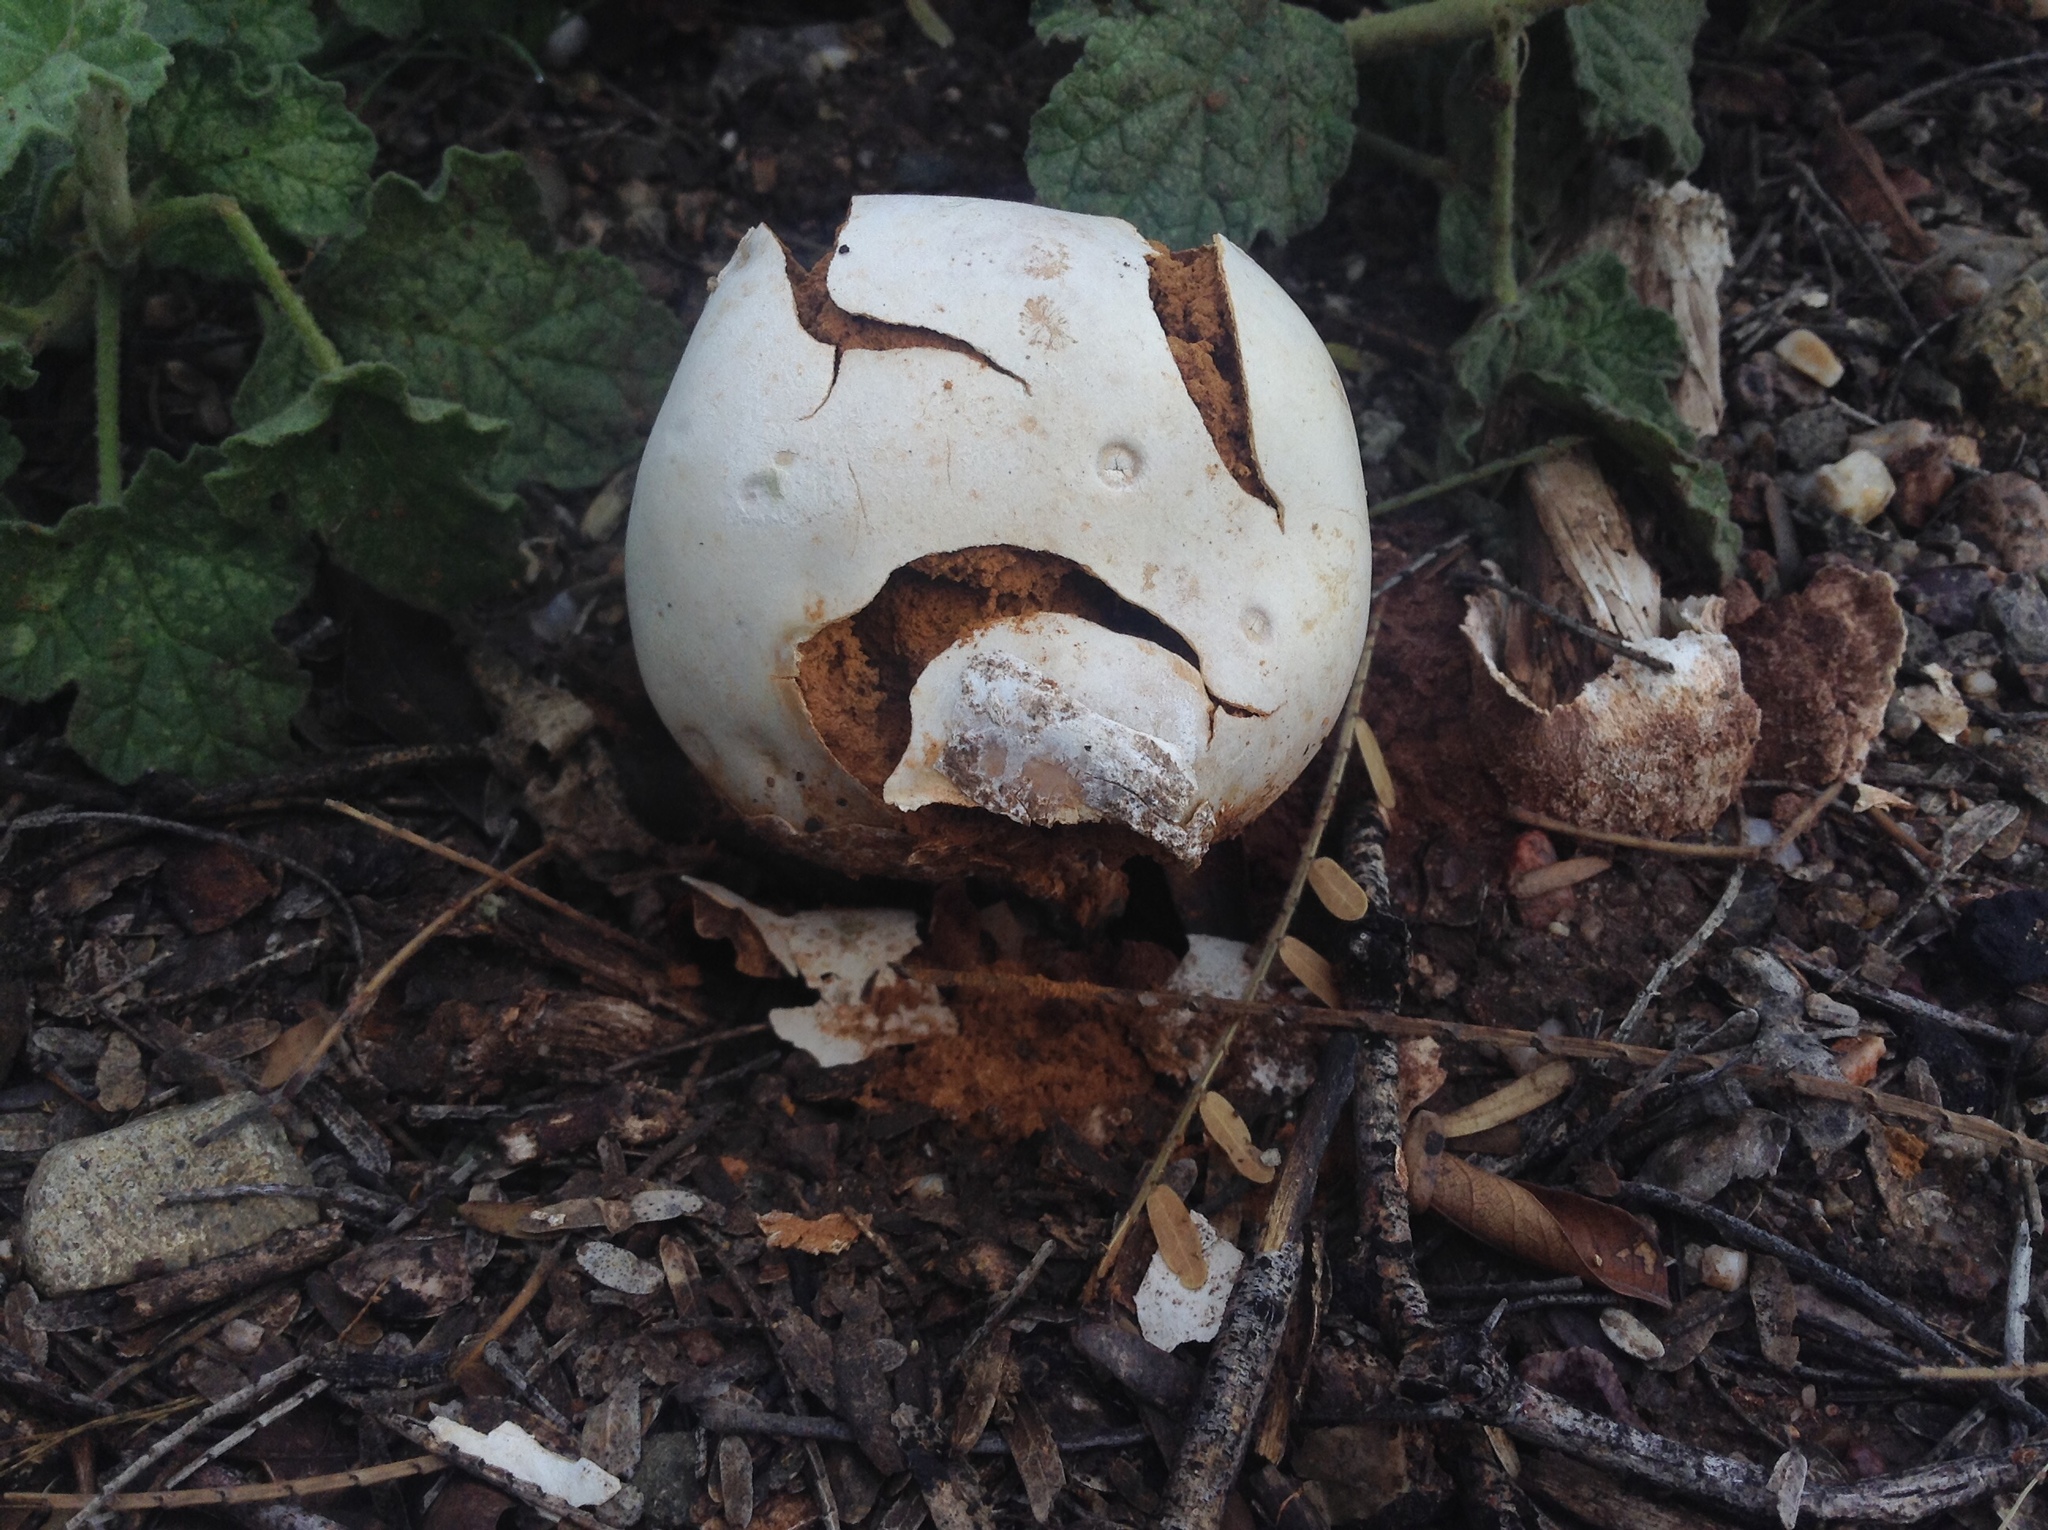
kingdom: Fungi
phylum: Basidiomycota
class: Agaricomycetes
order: Agaricales
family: Agaricaceae
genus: Battarreoides
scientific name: Battarreoides diguetii
